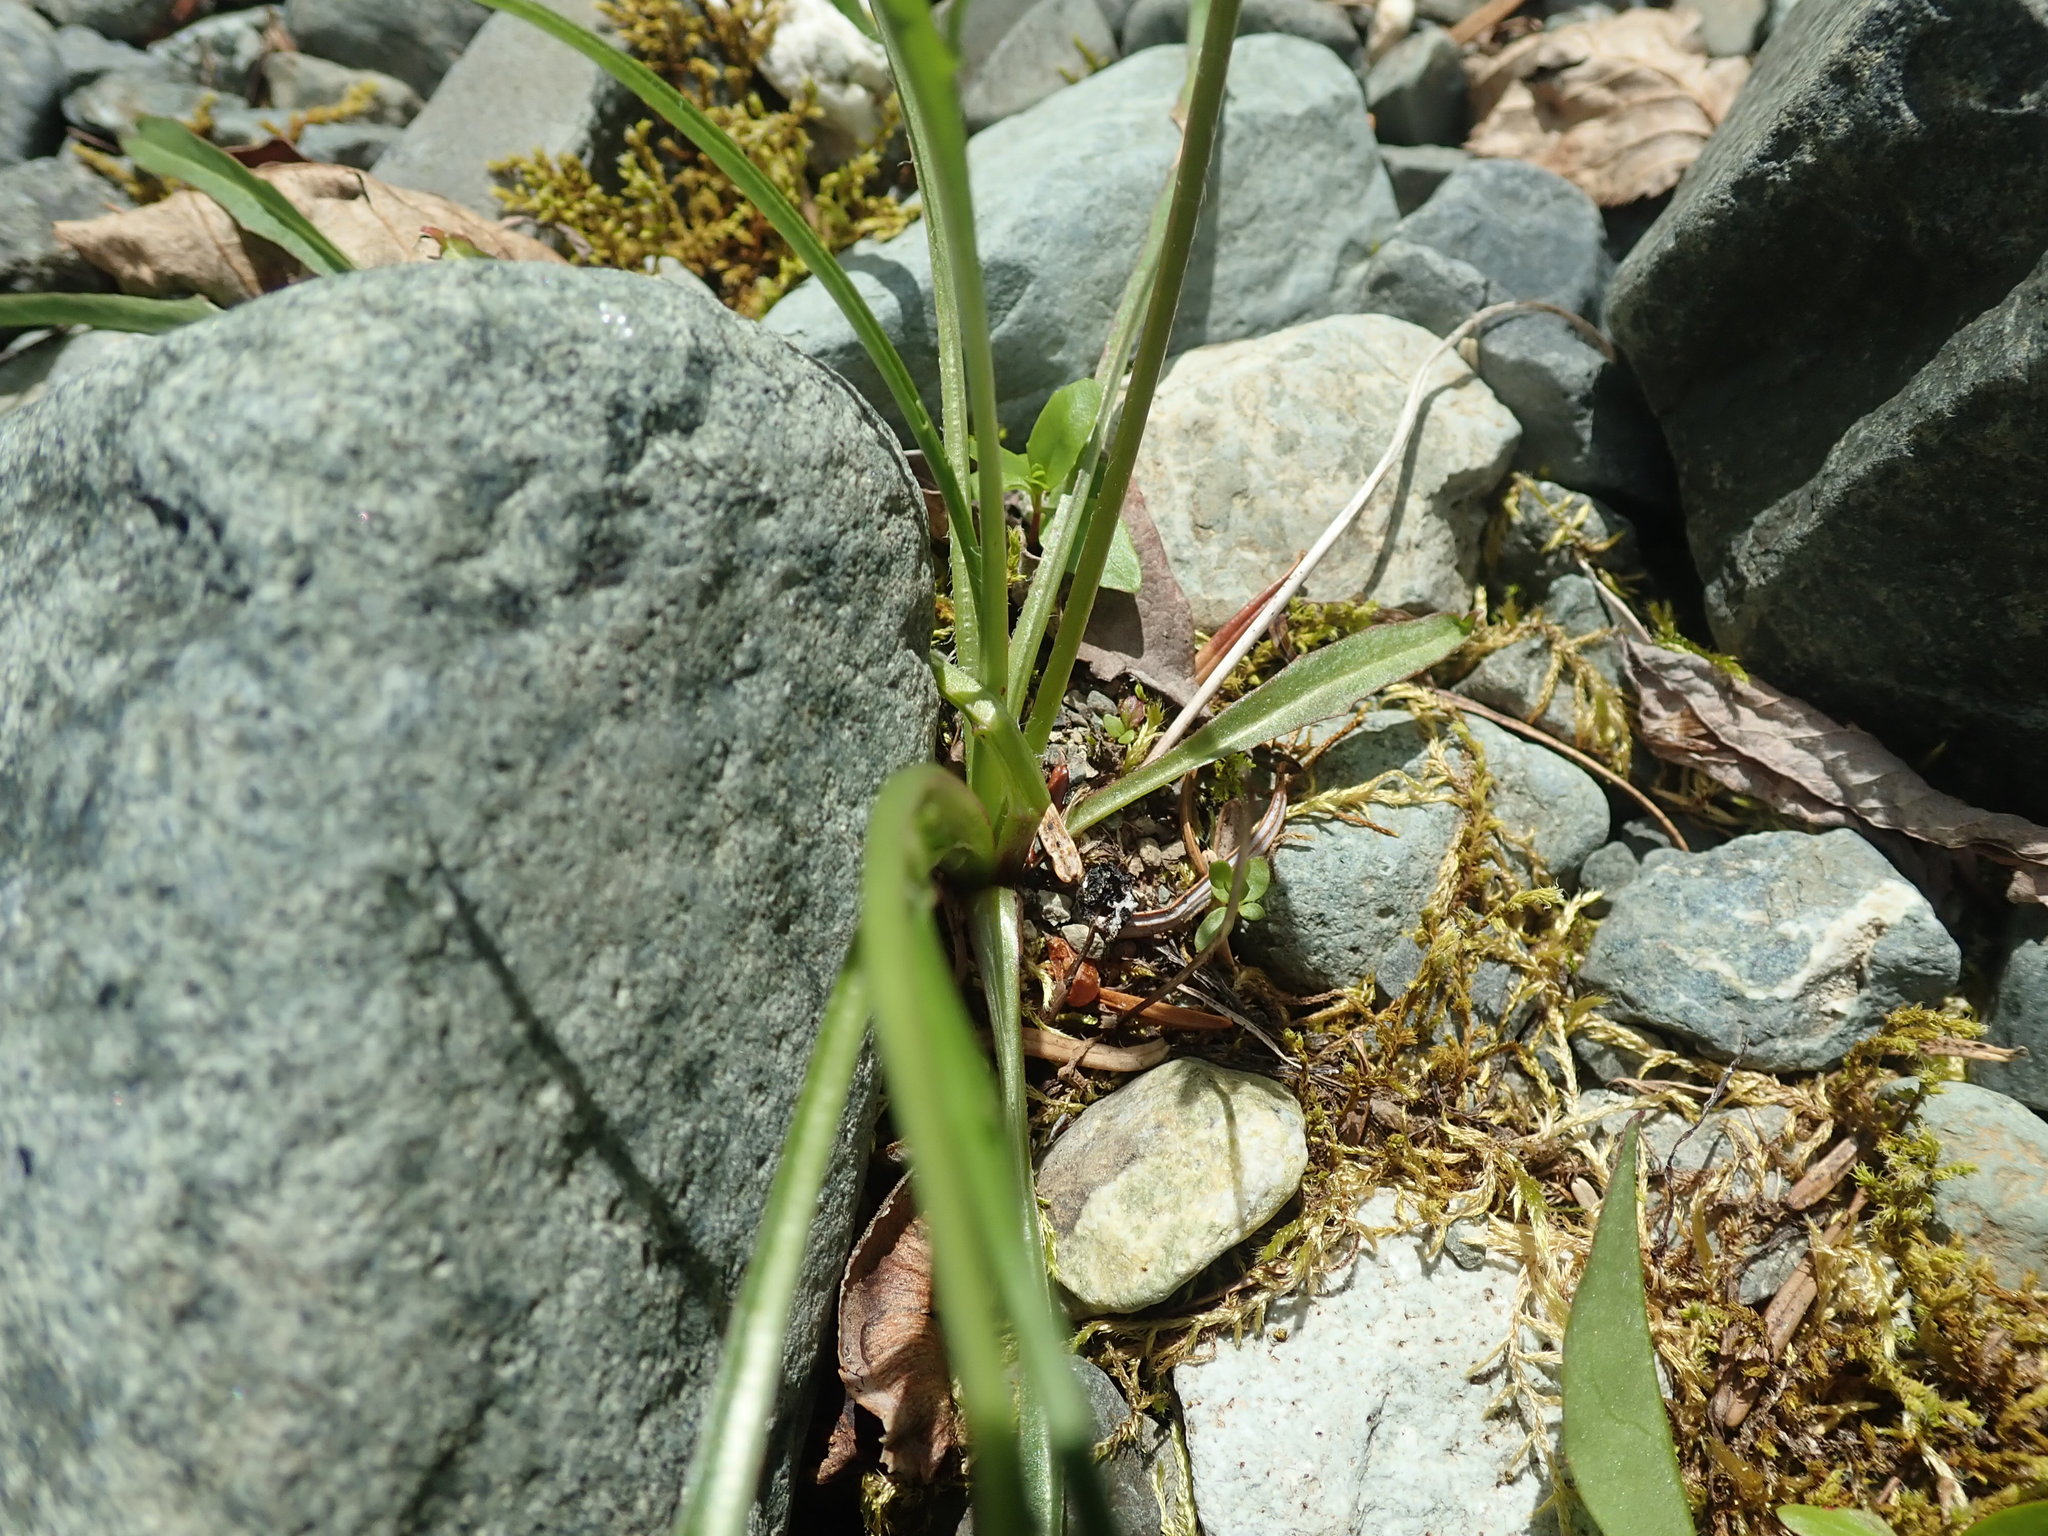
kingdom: Plantae
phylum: Tracheophyta
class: Magnoliopsida
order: Asterales
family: Asteraceae
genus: Agoseris
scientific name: Agoseris aurantiaca
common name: Mountain agoseris
